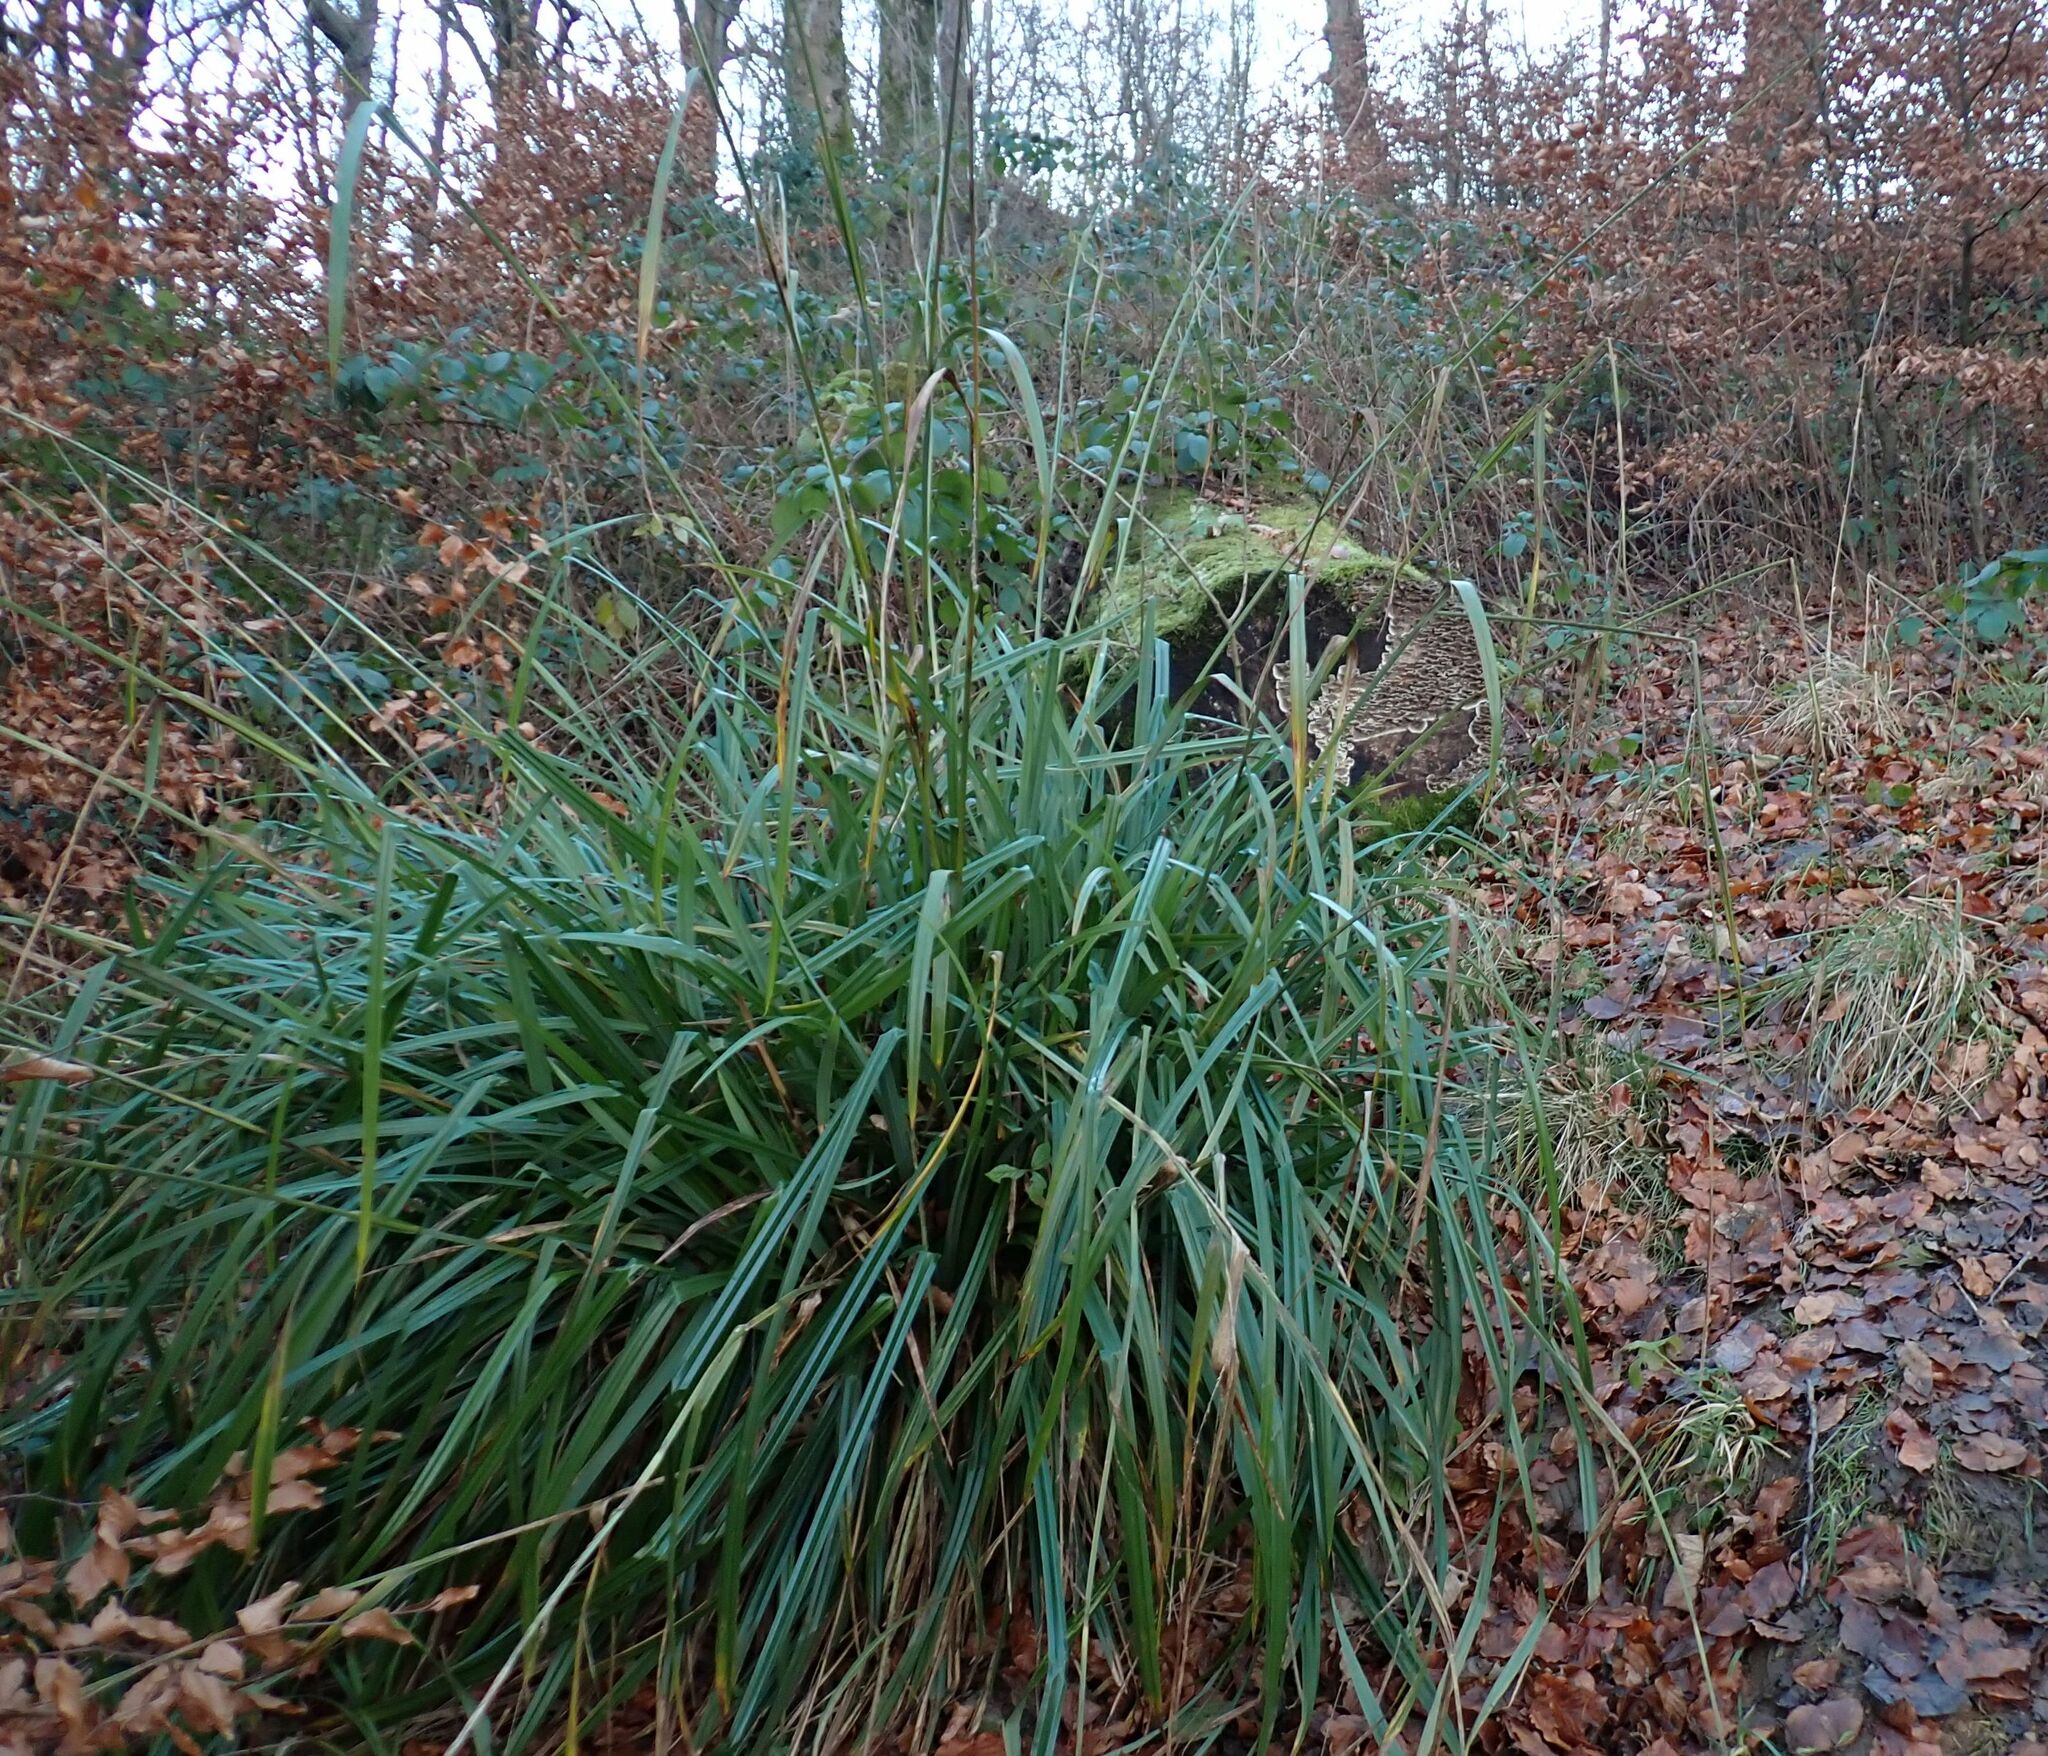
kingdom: Plantae
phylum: Tracheophyta
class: Liliopsida
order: Poales
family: Cyperaceae
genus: Carex
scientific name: Carex pendula
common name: Pendulous sedge
